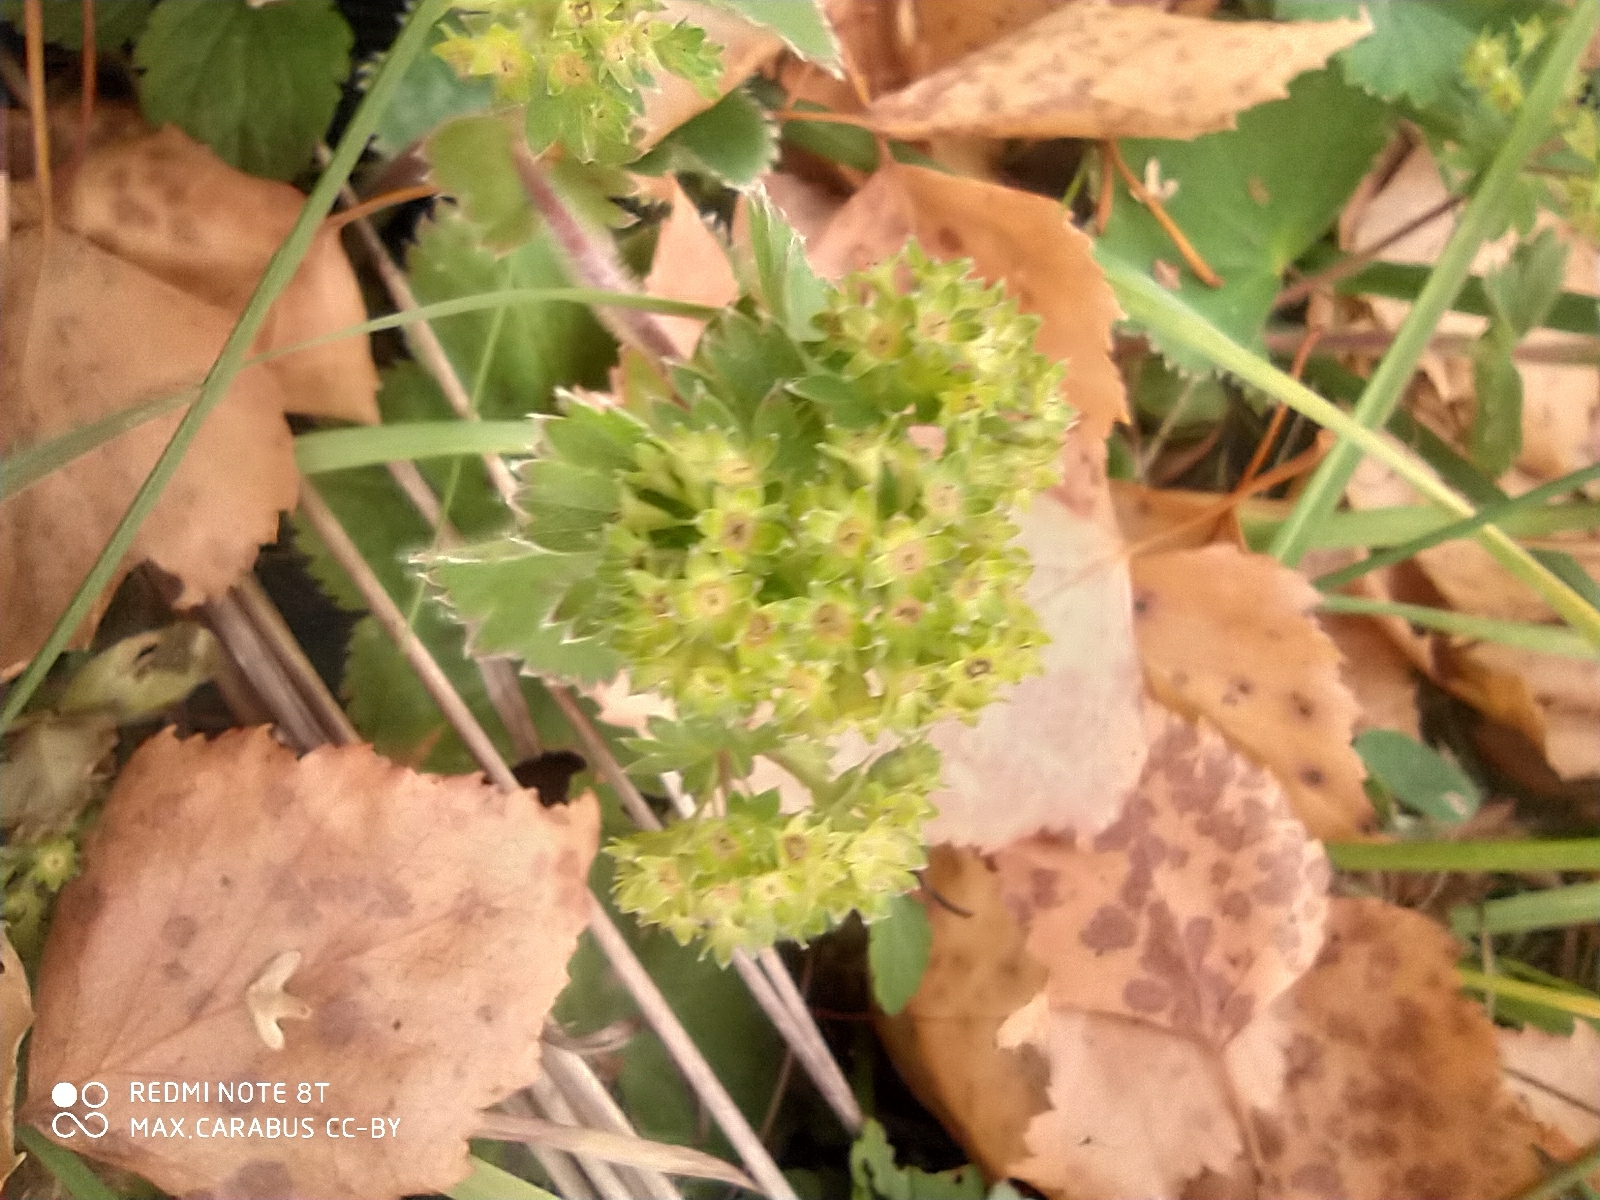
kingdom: Plantae
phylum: Tracheophyta
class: Magnoliopsida
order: Rosales
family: Rosaceae
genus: Alchemilla
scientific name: Alchemilla tubulosa
